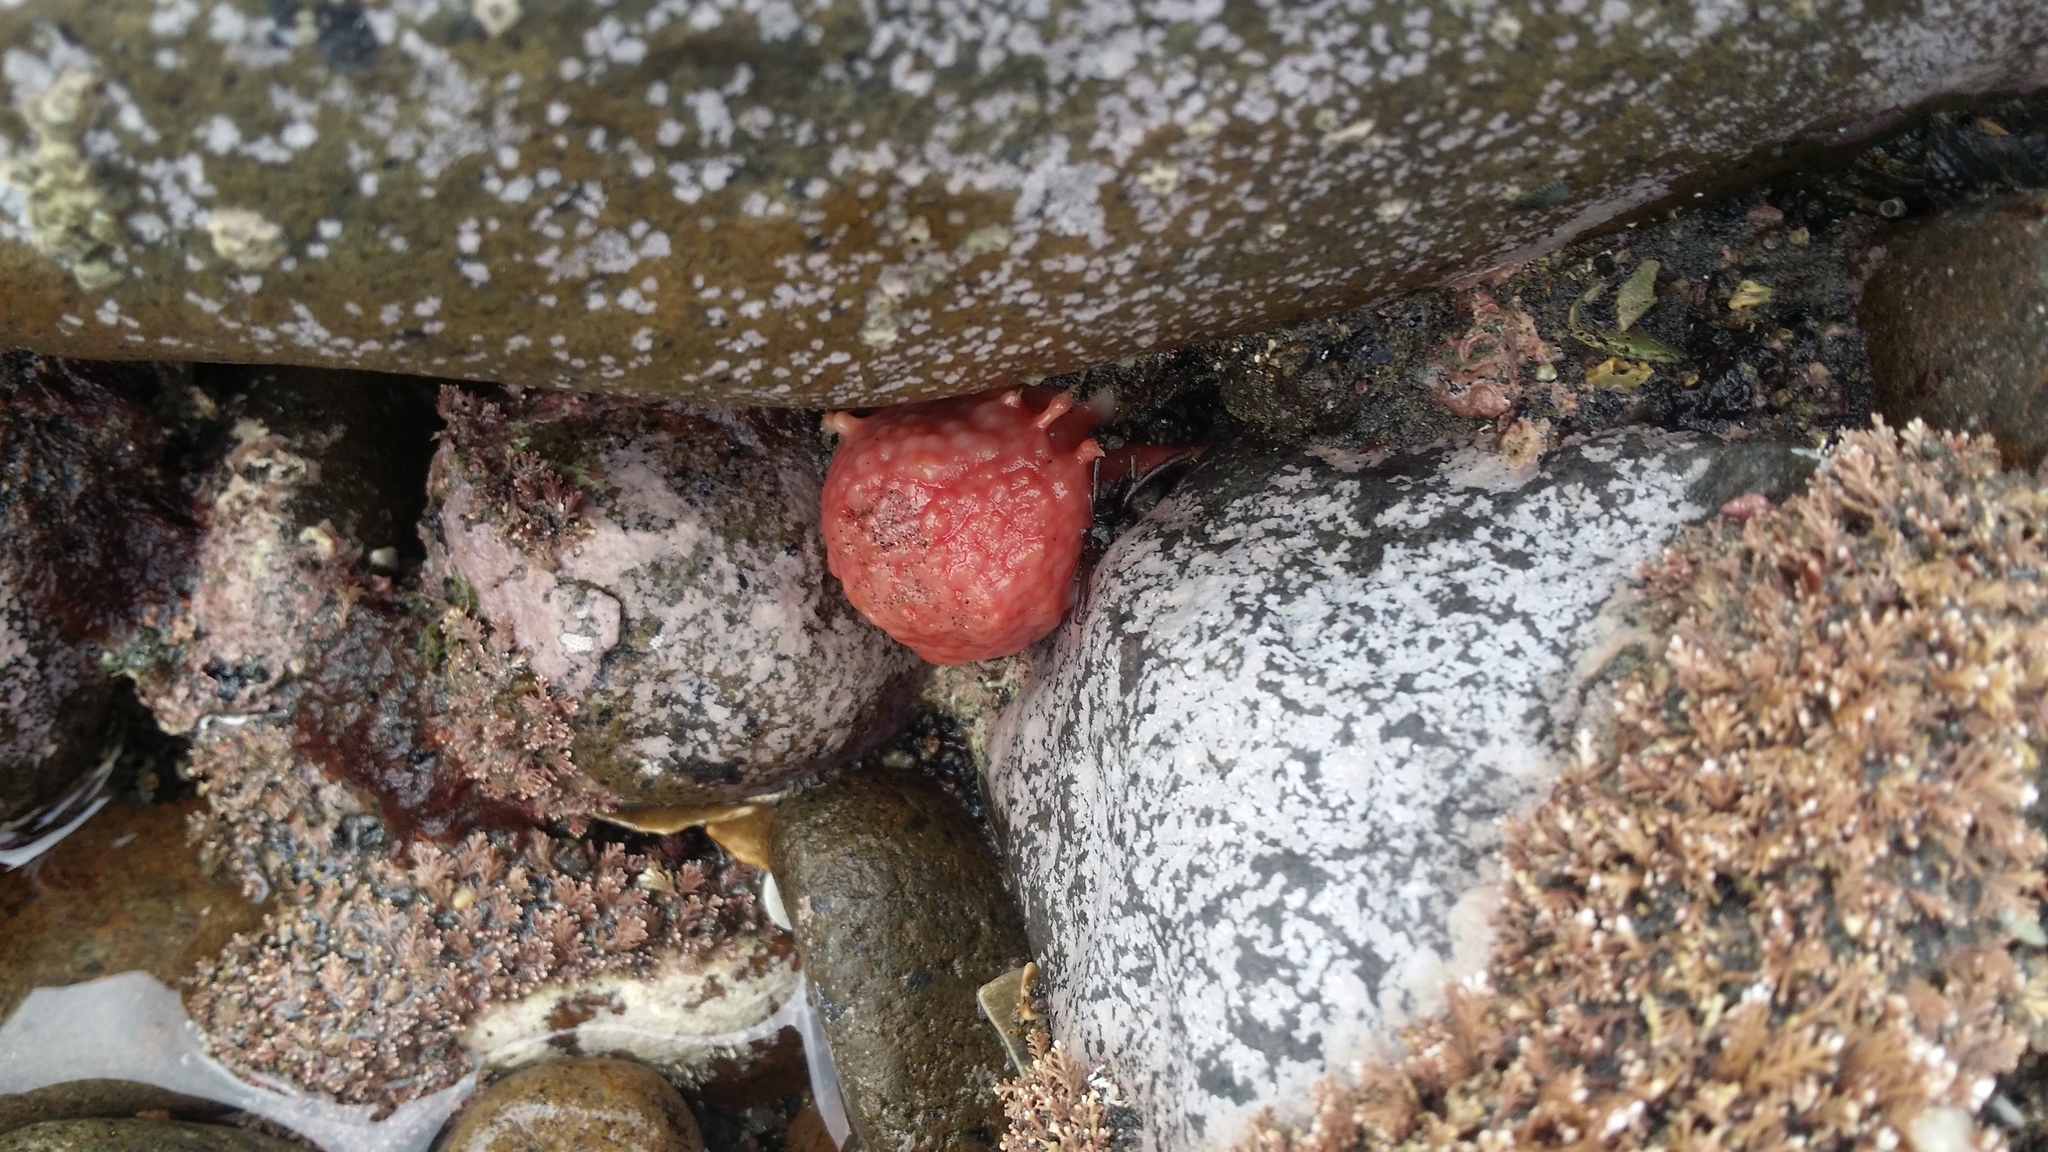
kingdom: Animalia
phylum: Porifera
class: Demospongiae
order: Tethyida
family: Tethyidae
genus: Tethya
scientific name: Tethya bergquistae
